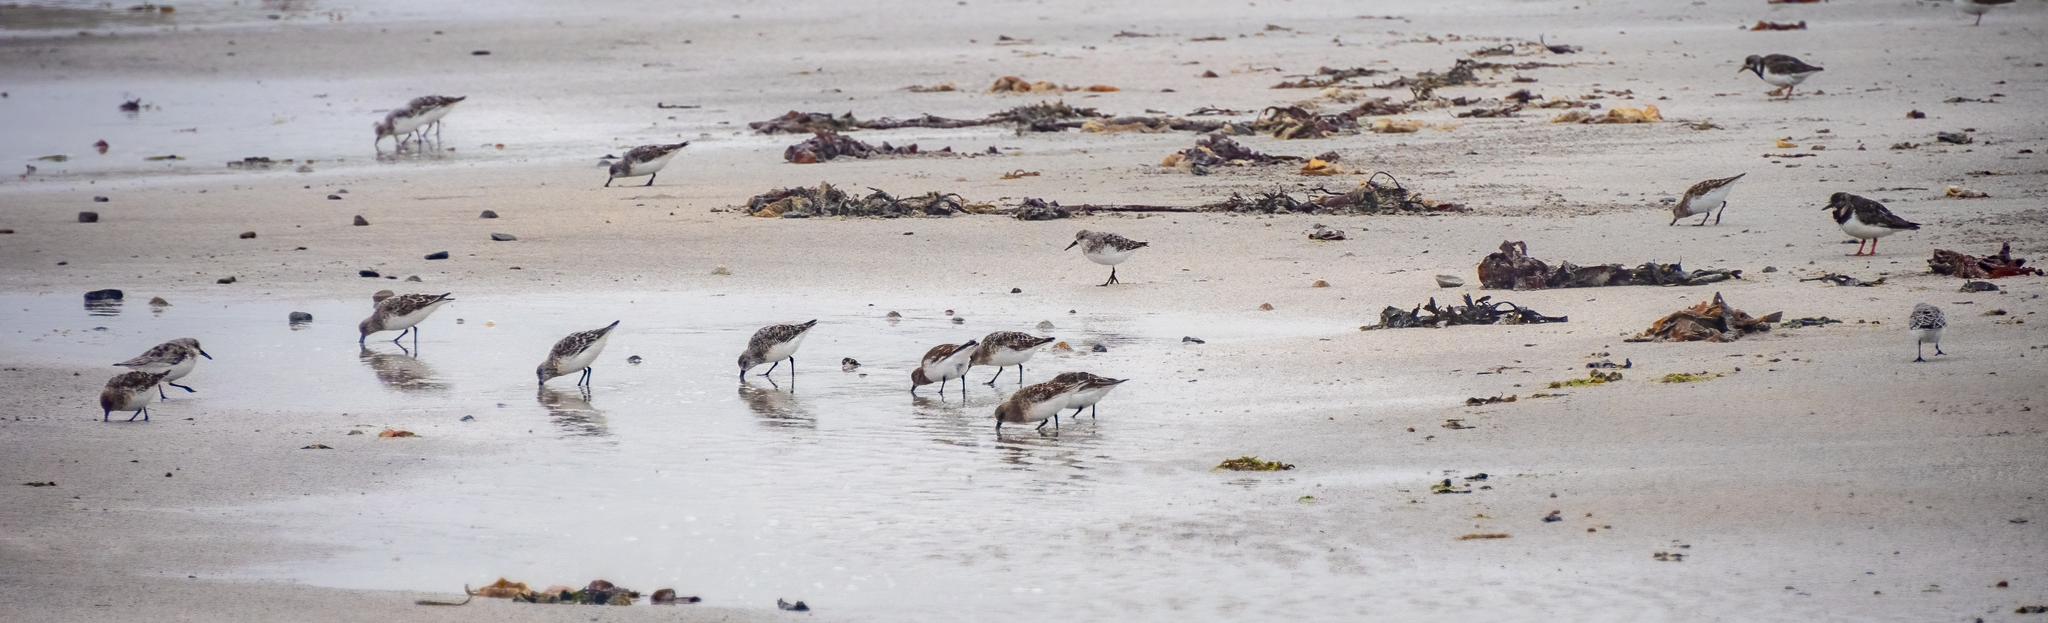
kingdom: Animalia
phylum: Chordata
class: Aves
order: Charadriiformes
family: Scolopacidae
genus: Calidris
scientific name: Calidris alba
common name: Sanderling
